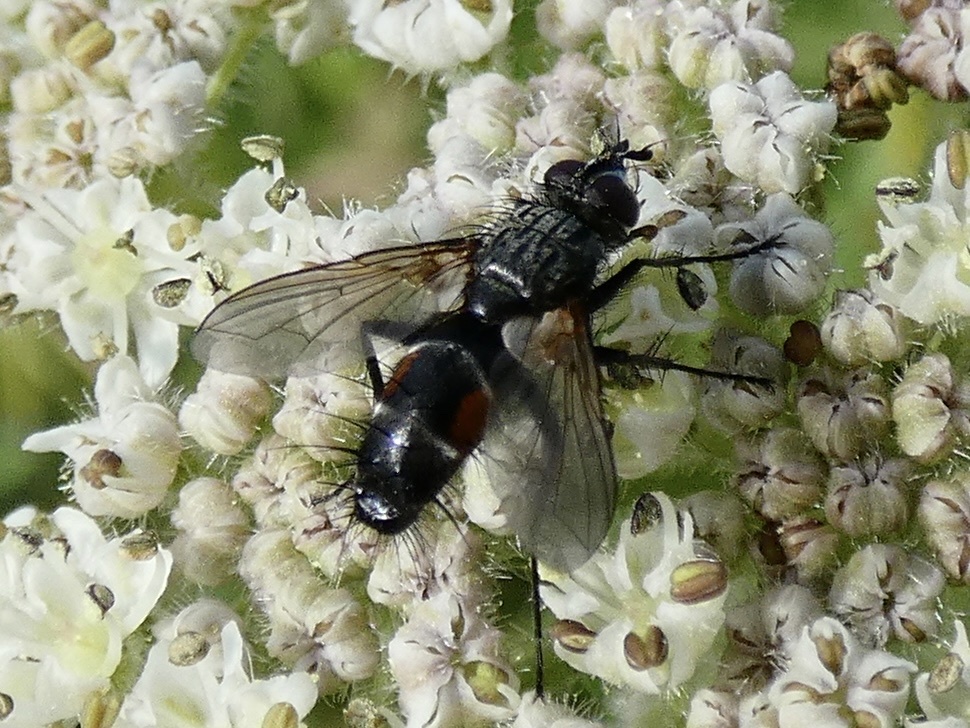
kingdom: Animalia
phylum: Arthropoda
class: Insecta
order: Diptera
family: Tachinidae
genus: Eriothrix
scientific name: Eriothrix rufomaculatus
